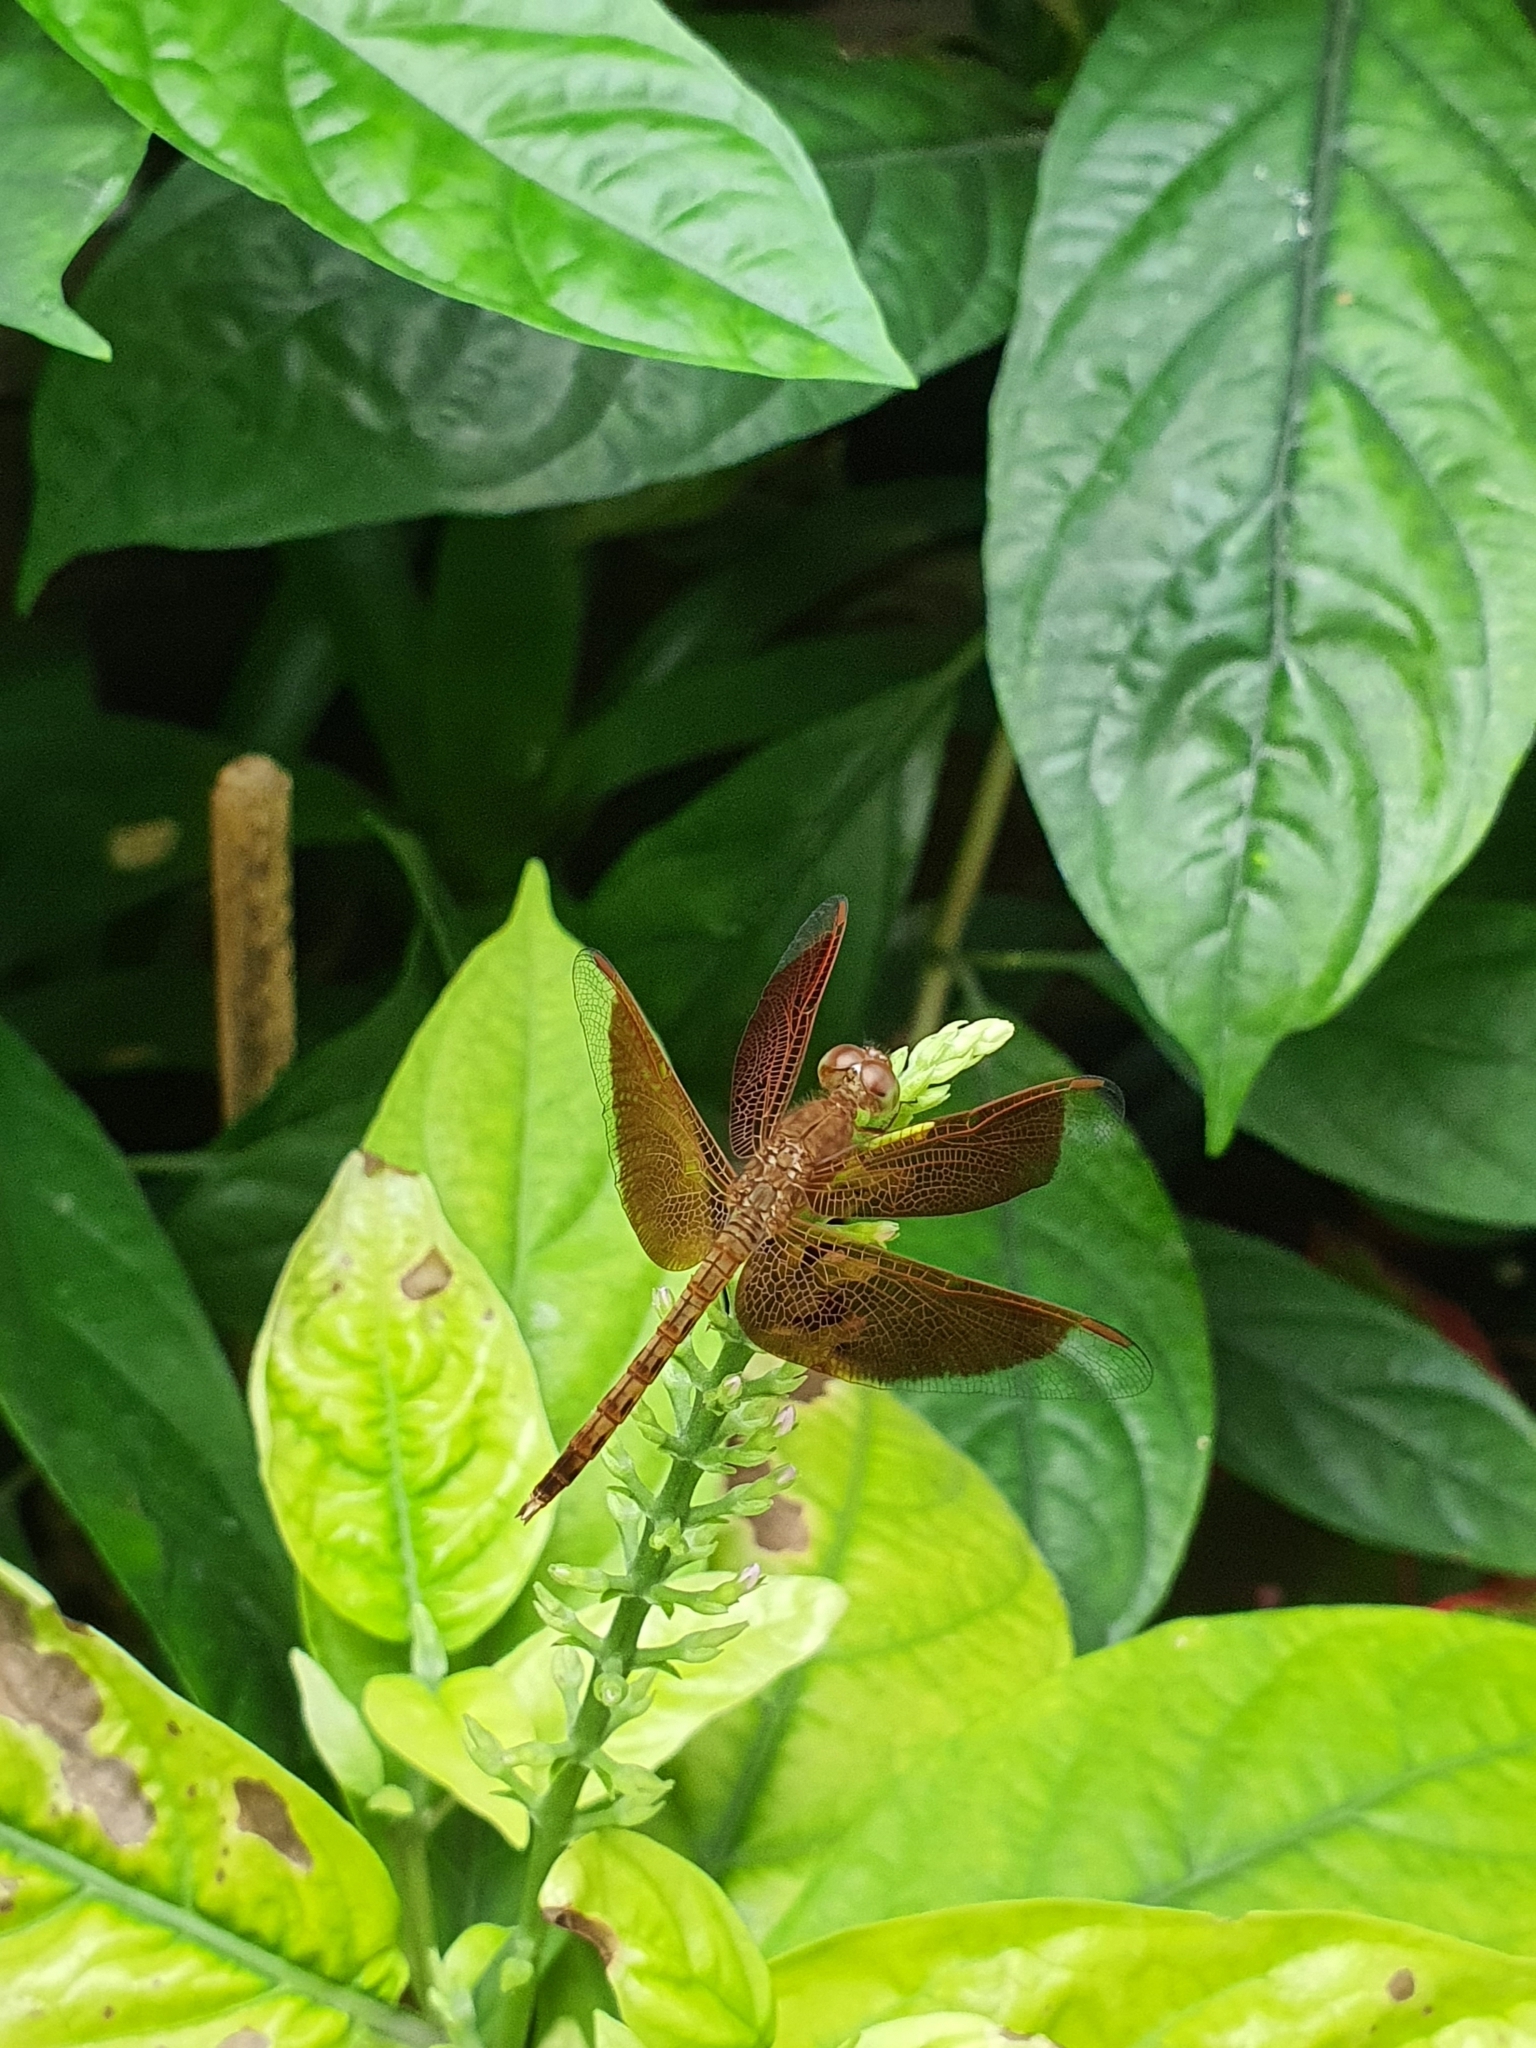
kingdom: Animalia
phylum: Arthropoda
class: Insecta
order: Odonata
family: Libellulidae
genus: Neurothemis
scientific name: Neurothemis fluctuans
